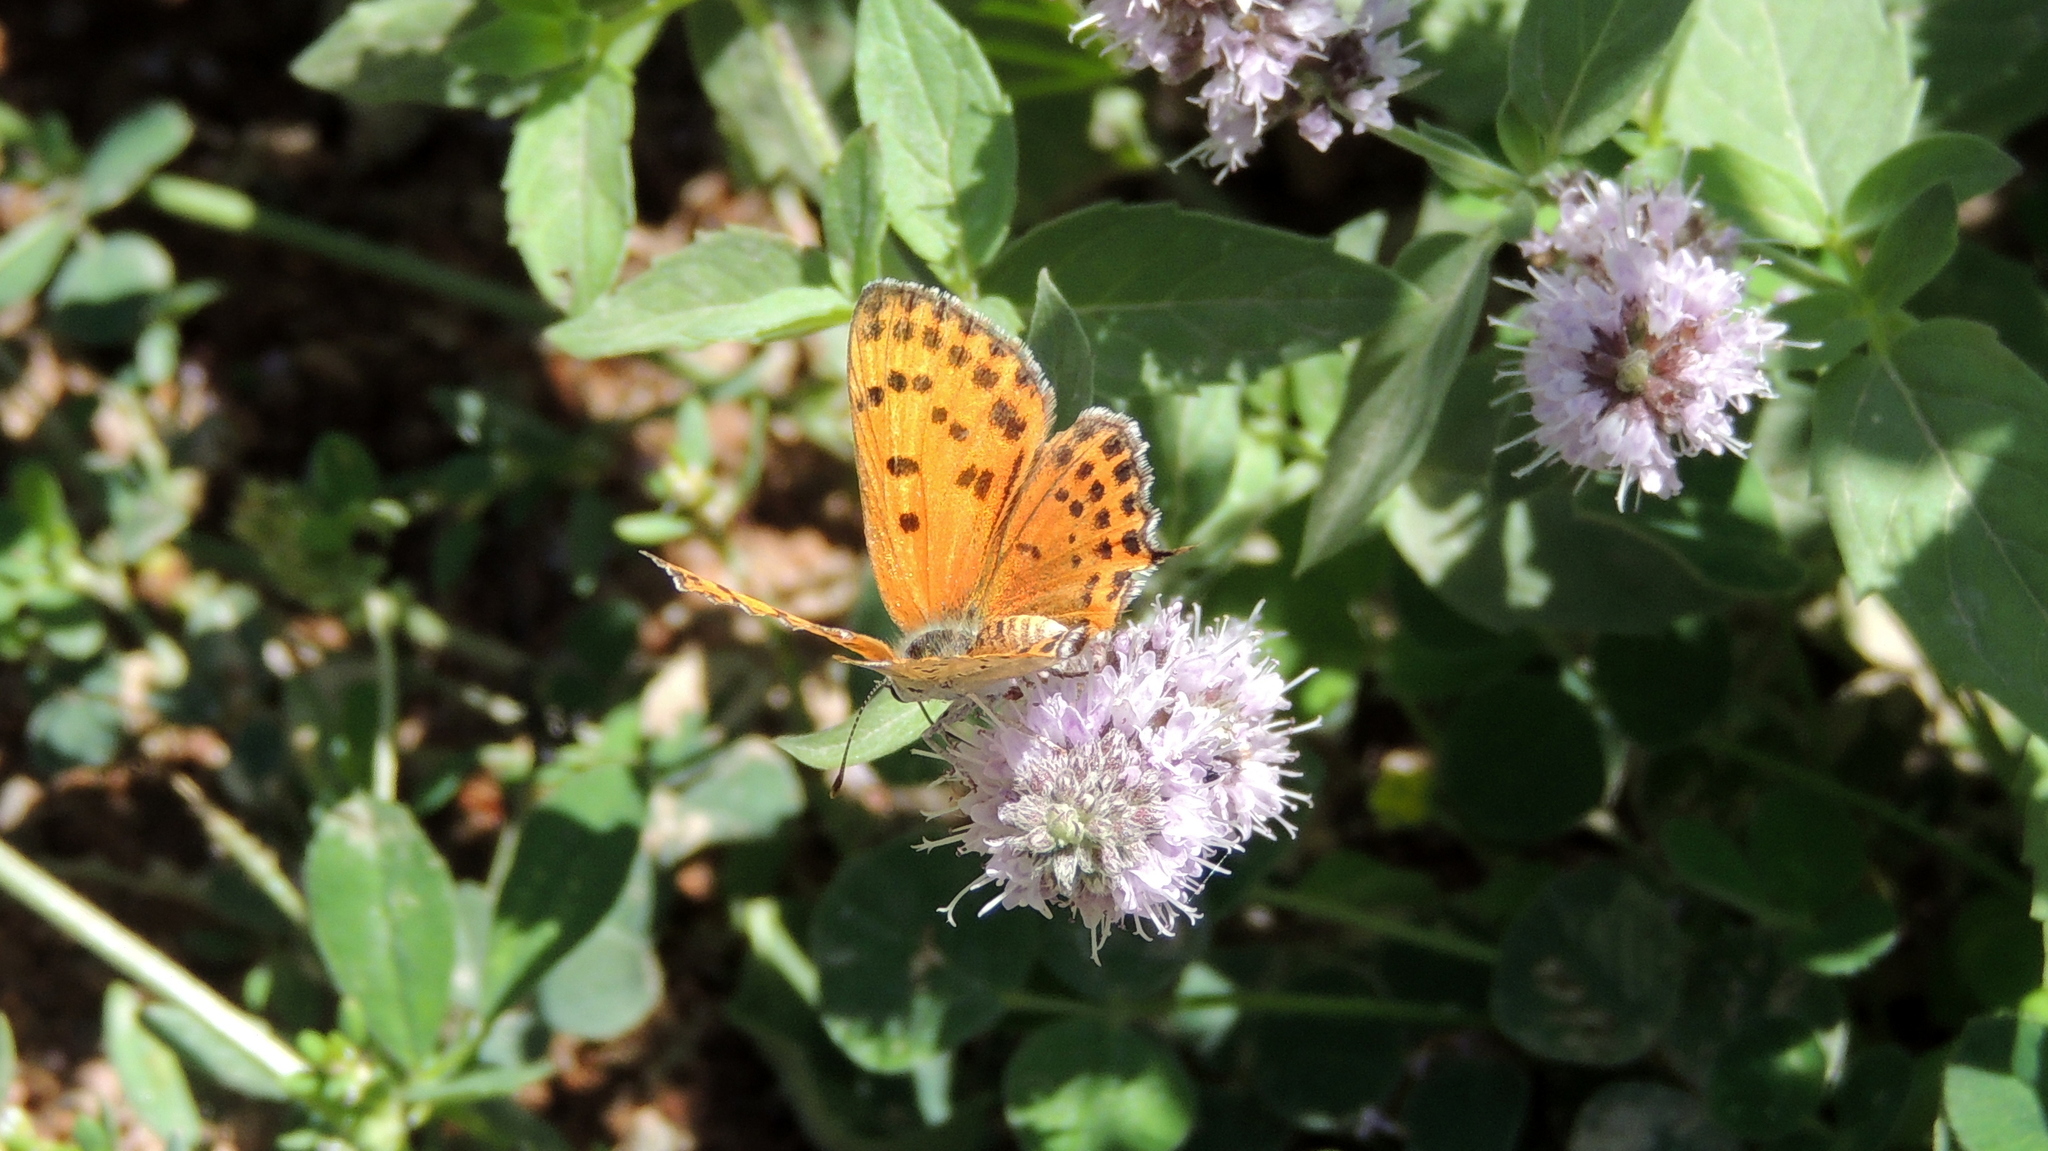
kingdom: Animalia
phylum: Arthropoda
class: Insecta
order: Lepidoptera
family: Lycaenidae
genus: Thersamonia
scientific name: Thersamonia thersamon
